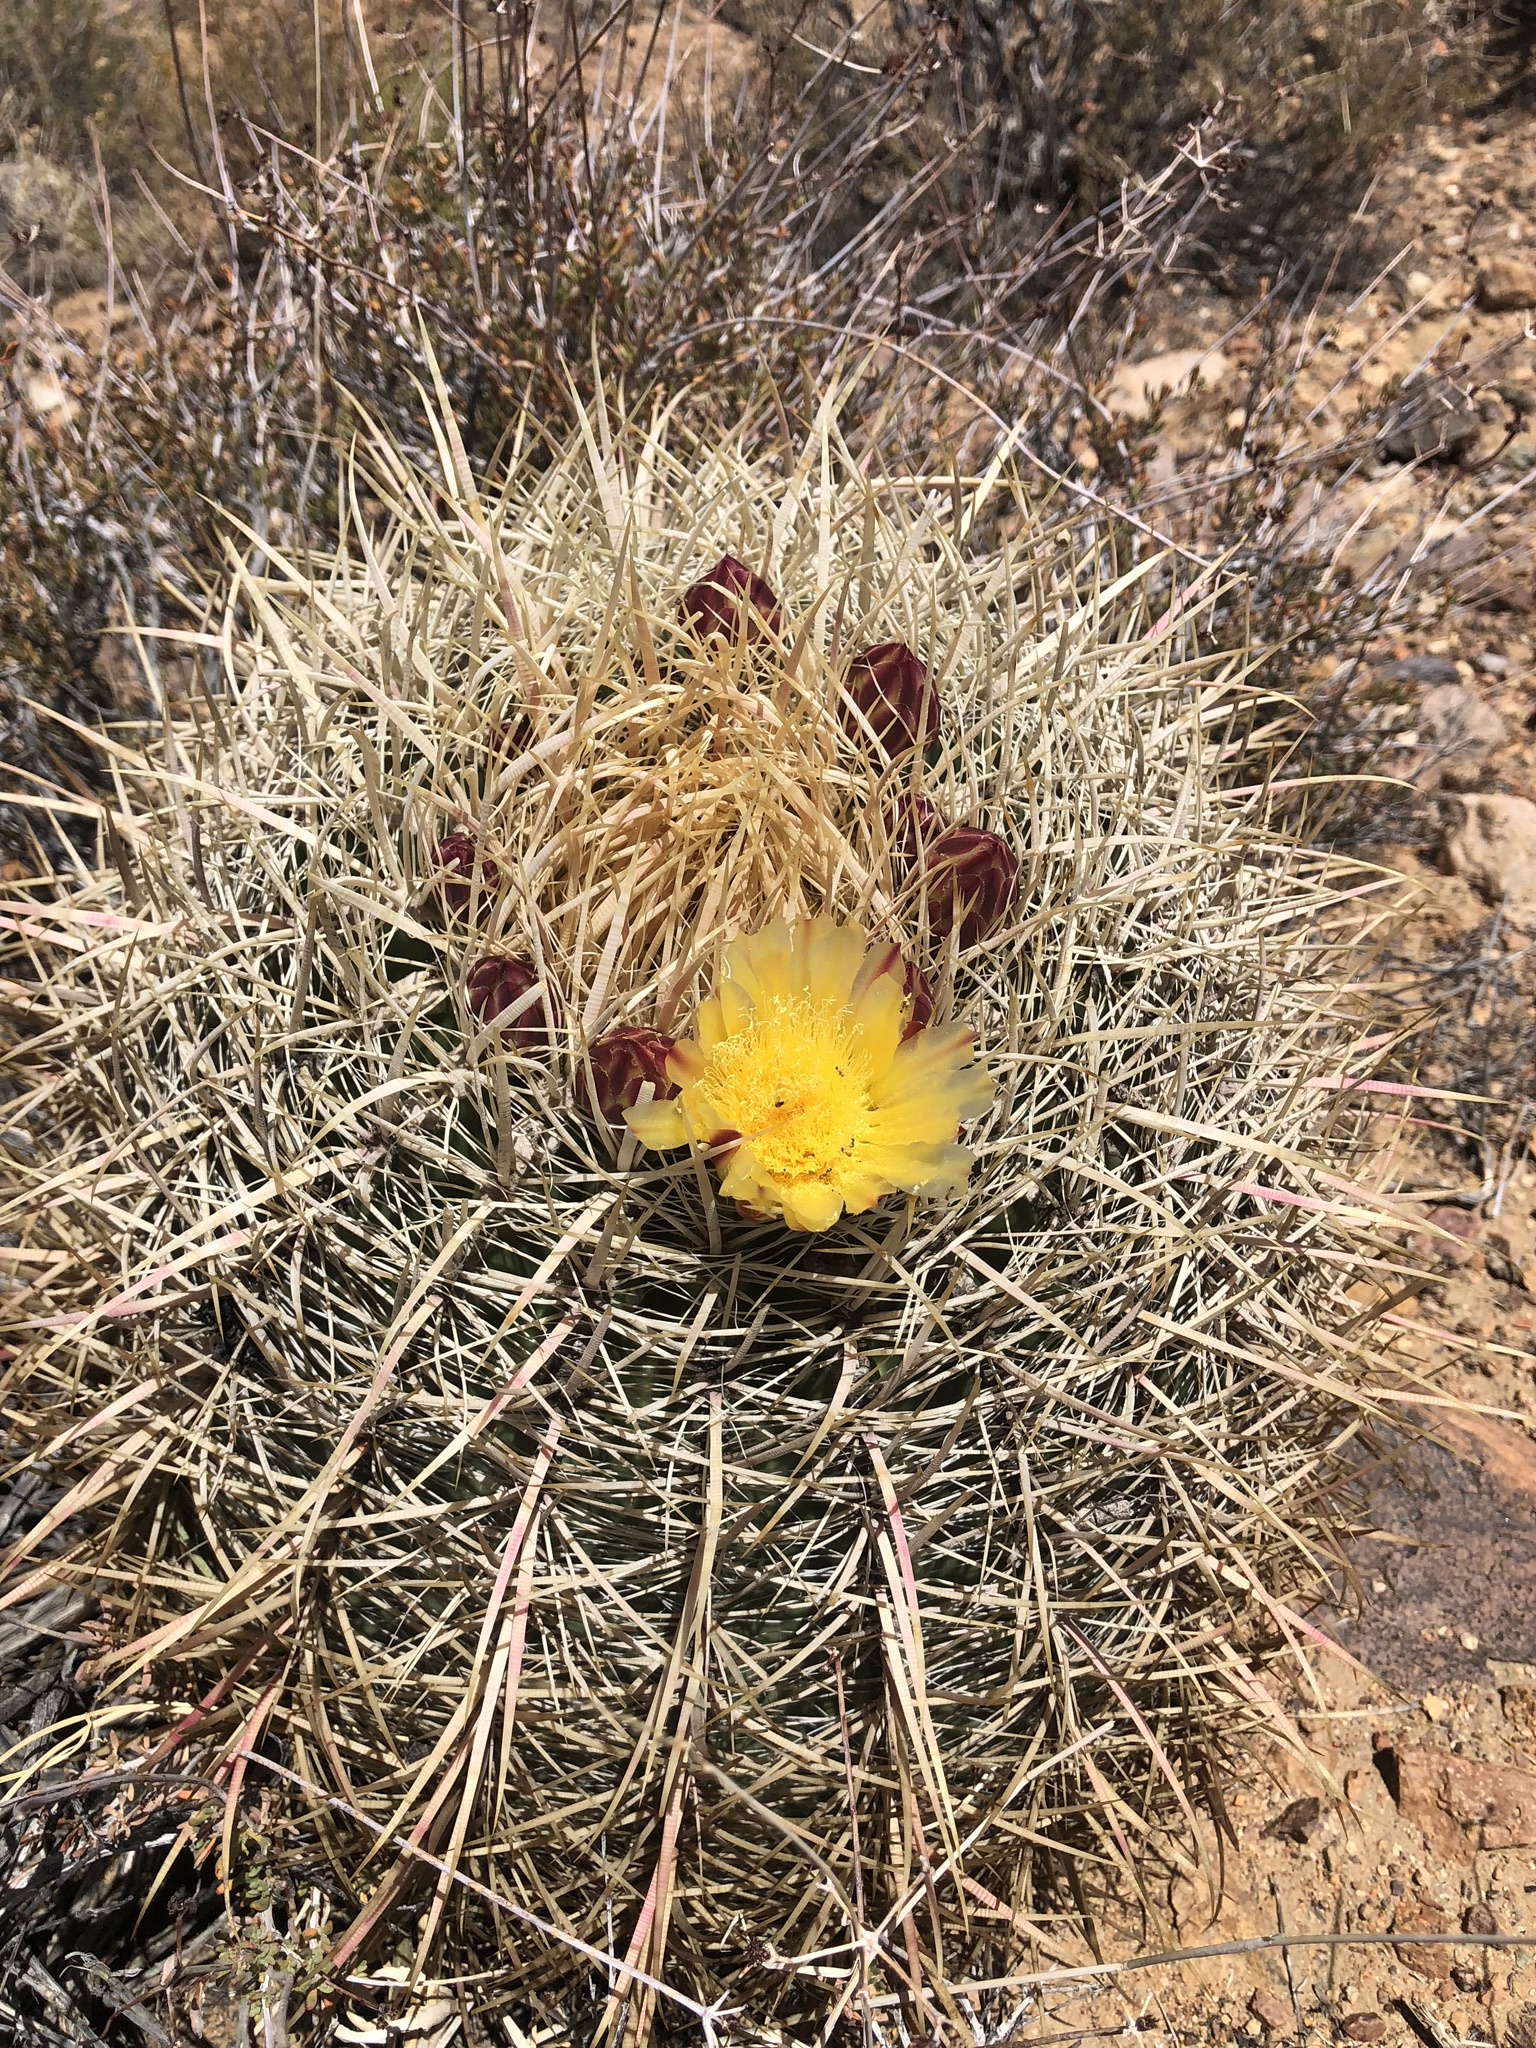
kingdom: Plantae
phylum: Tracheophyta
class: Magnoliopsida
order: Caryophyllales
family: Cactaceae
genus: Ferocactus
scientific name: Ferocactus cylindraceus
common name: California barrel cactus
